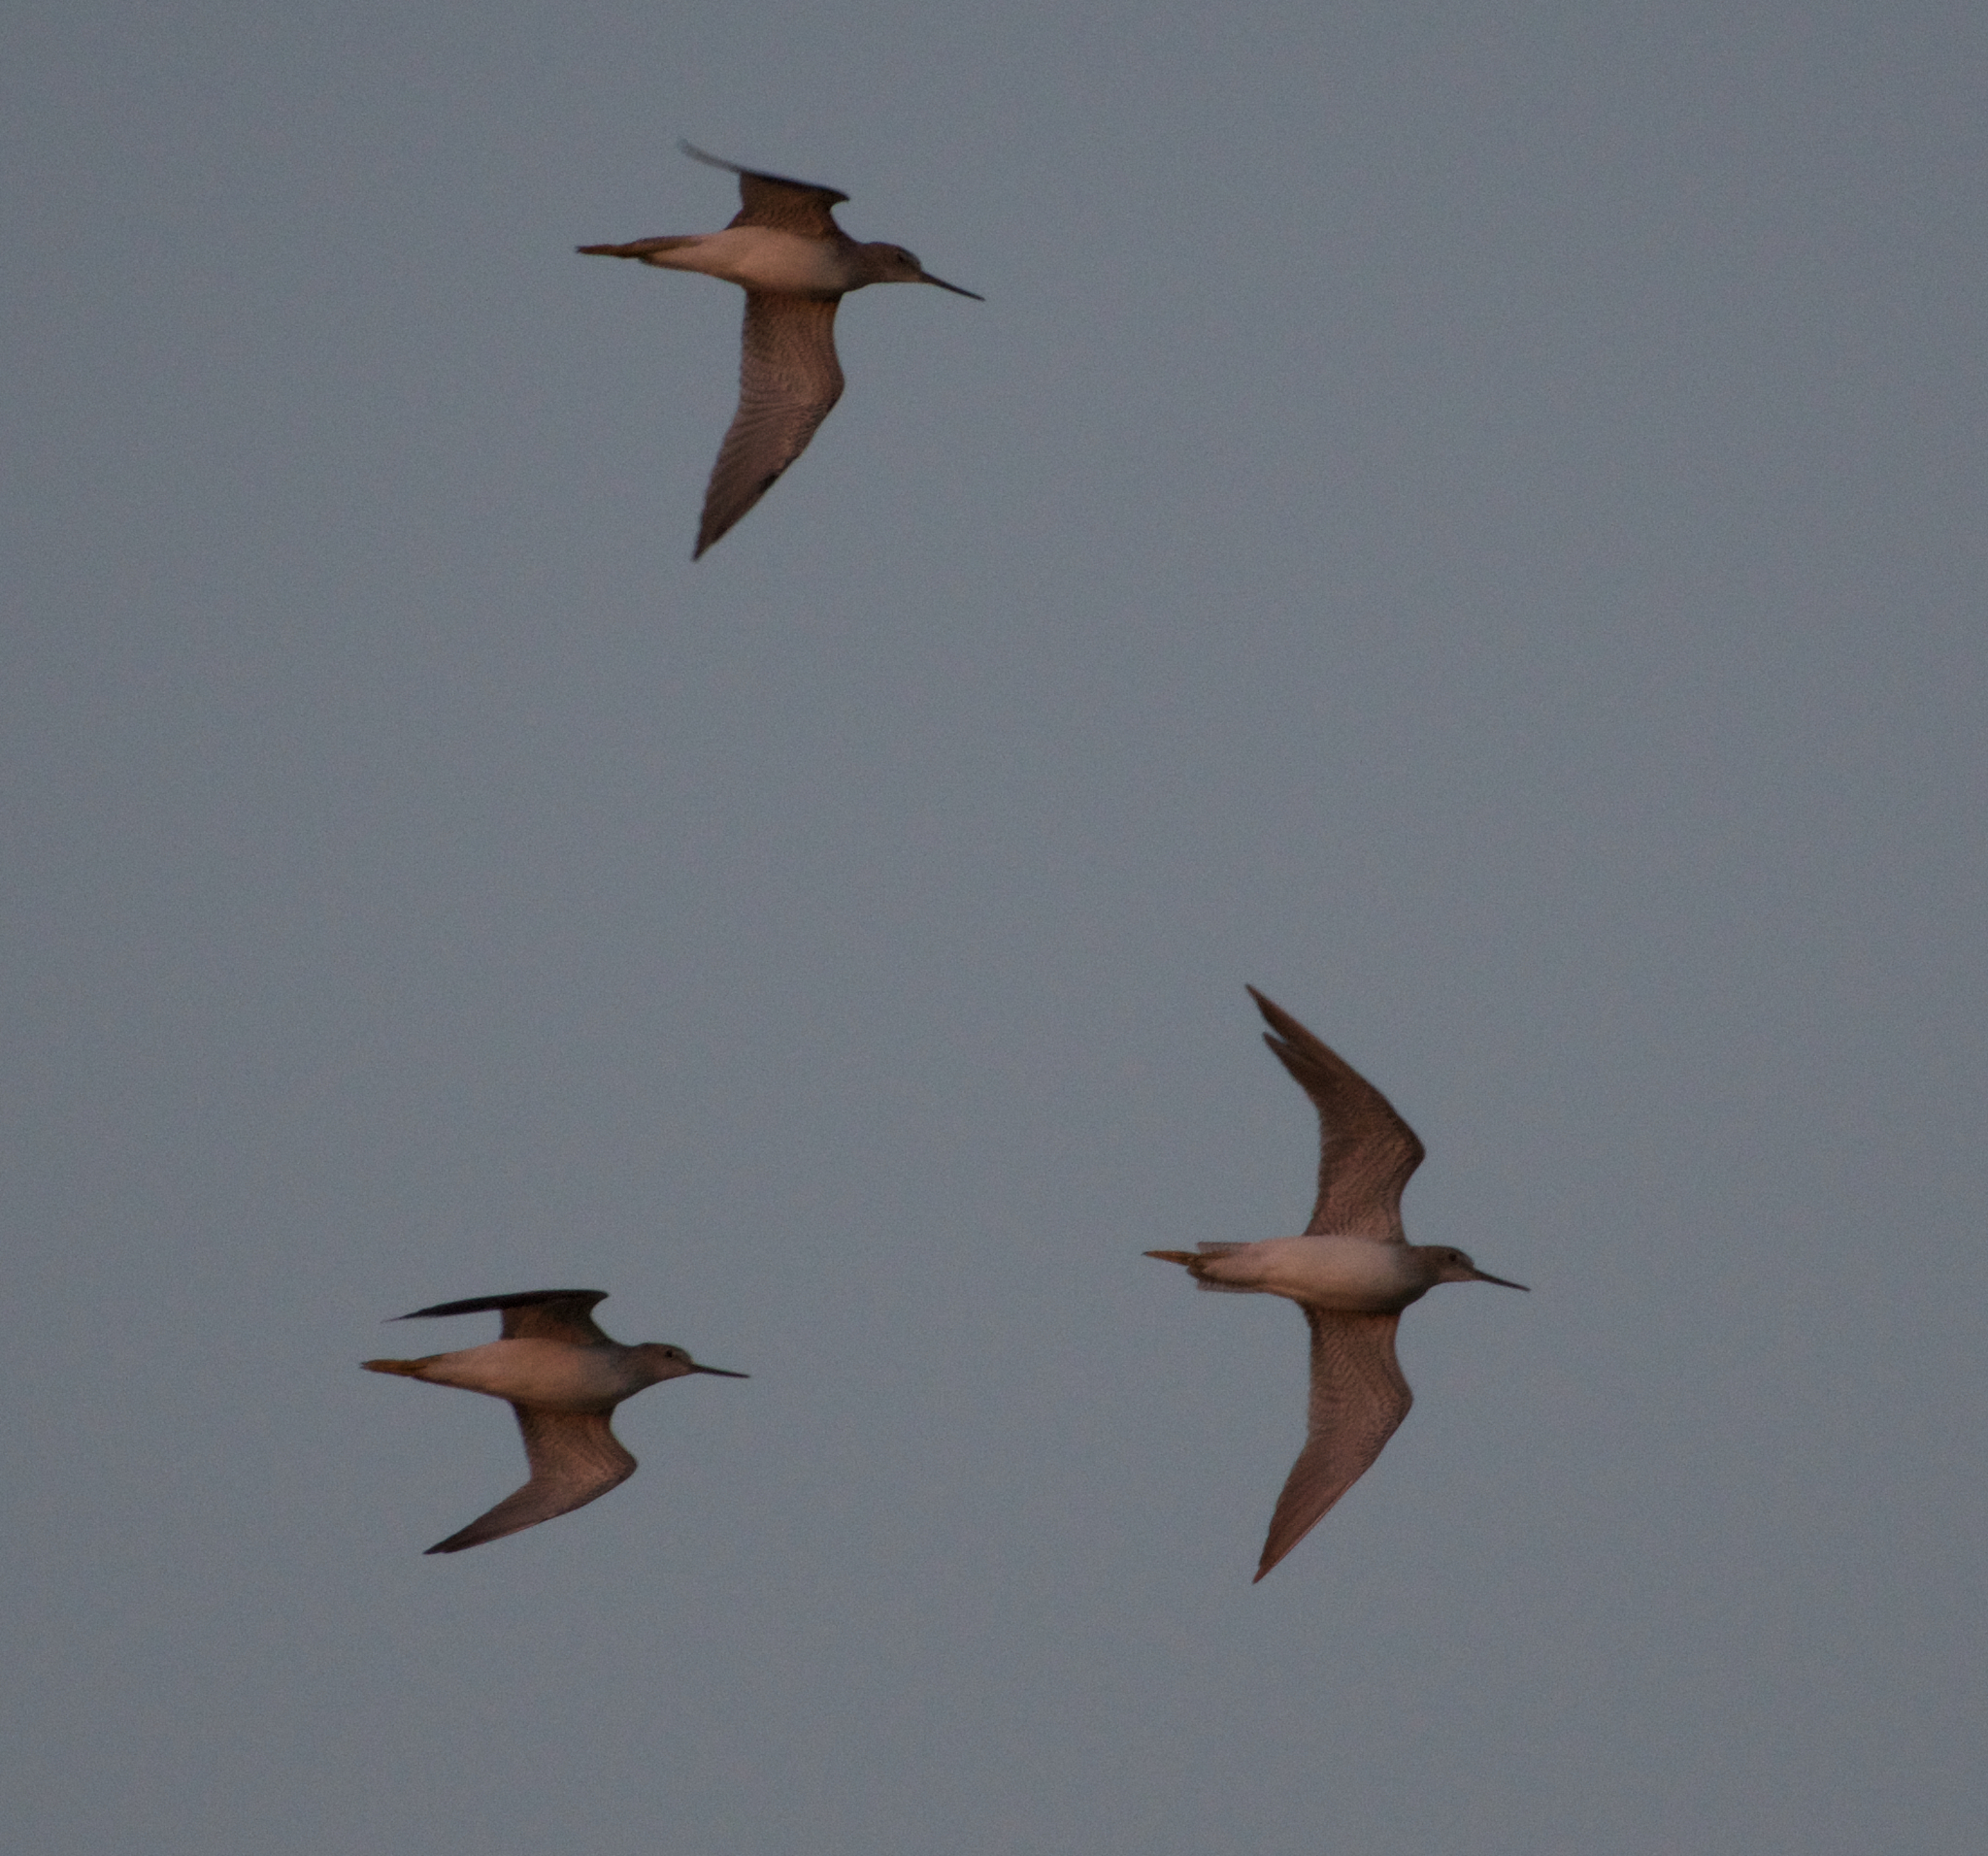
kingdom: Animalia
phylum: Chordata
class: Aves
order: Charadriiformes
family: Scolopacidae
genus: Tringa
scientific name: Tringa melanoleuca
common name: Greater yellowlegs
